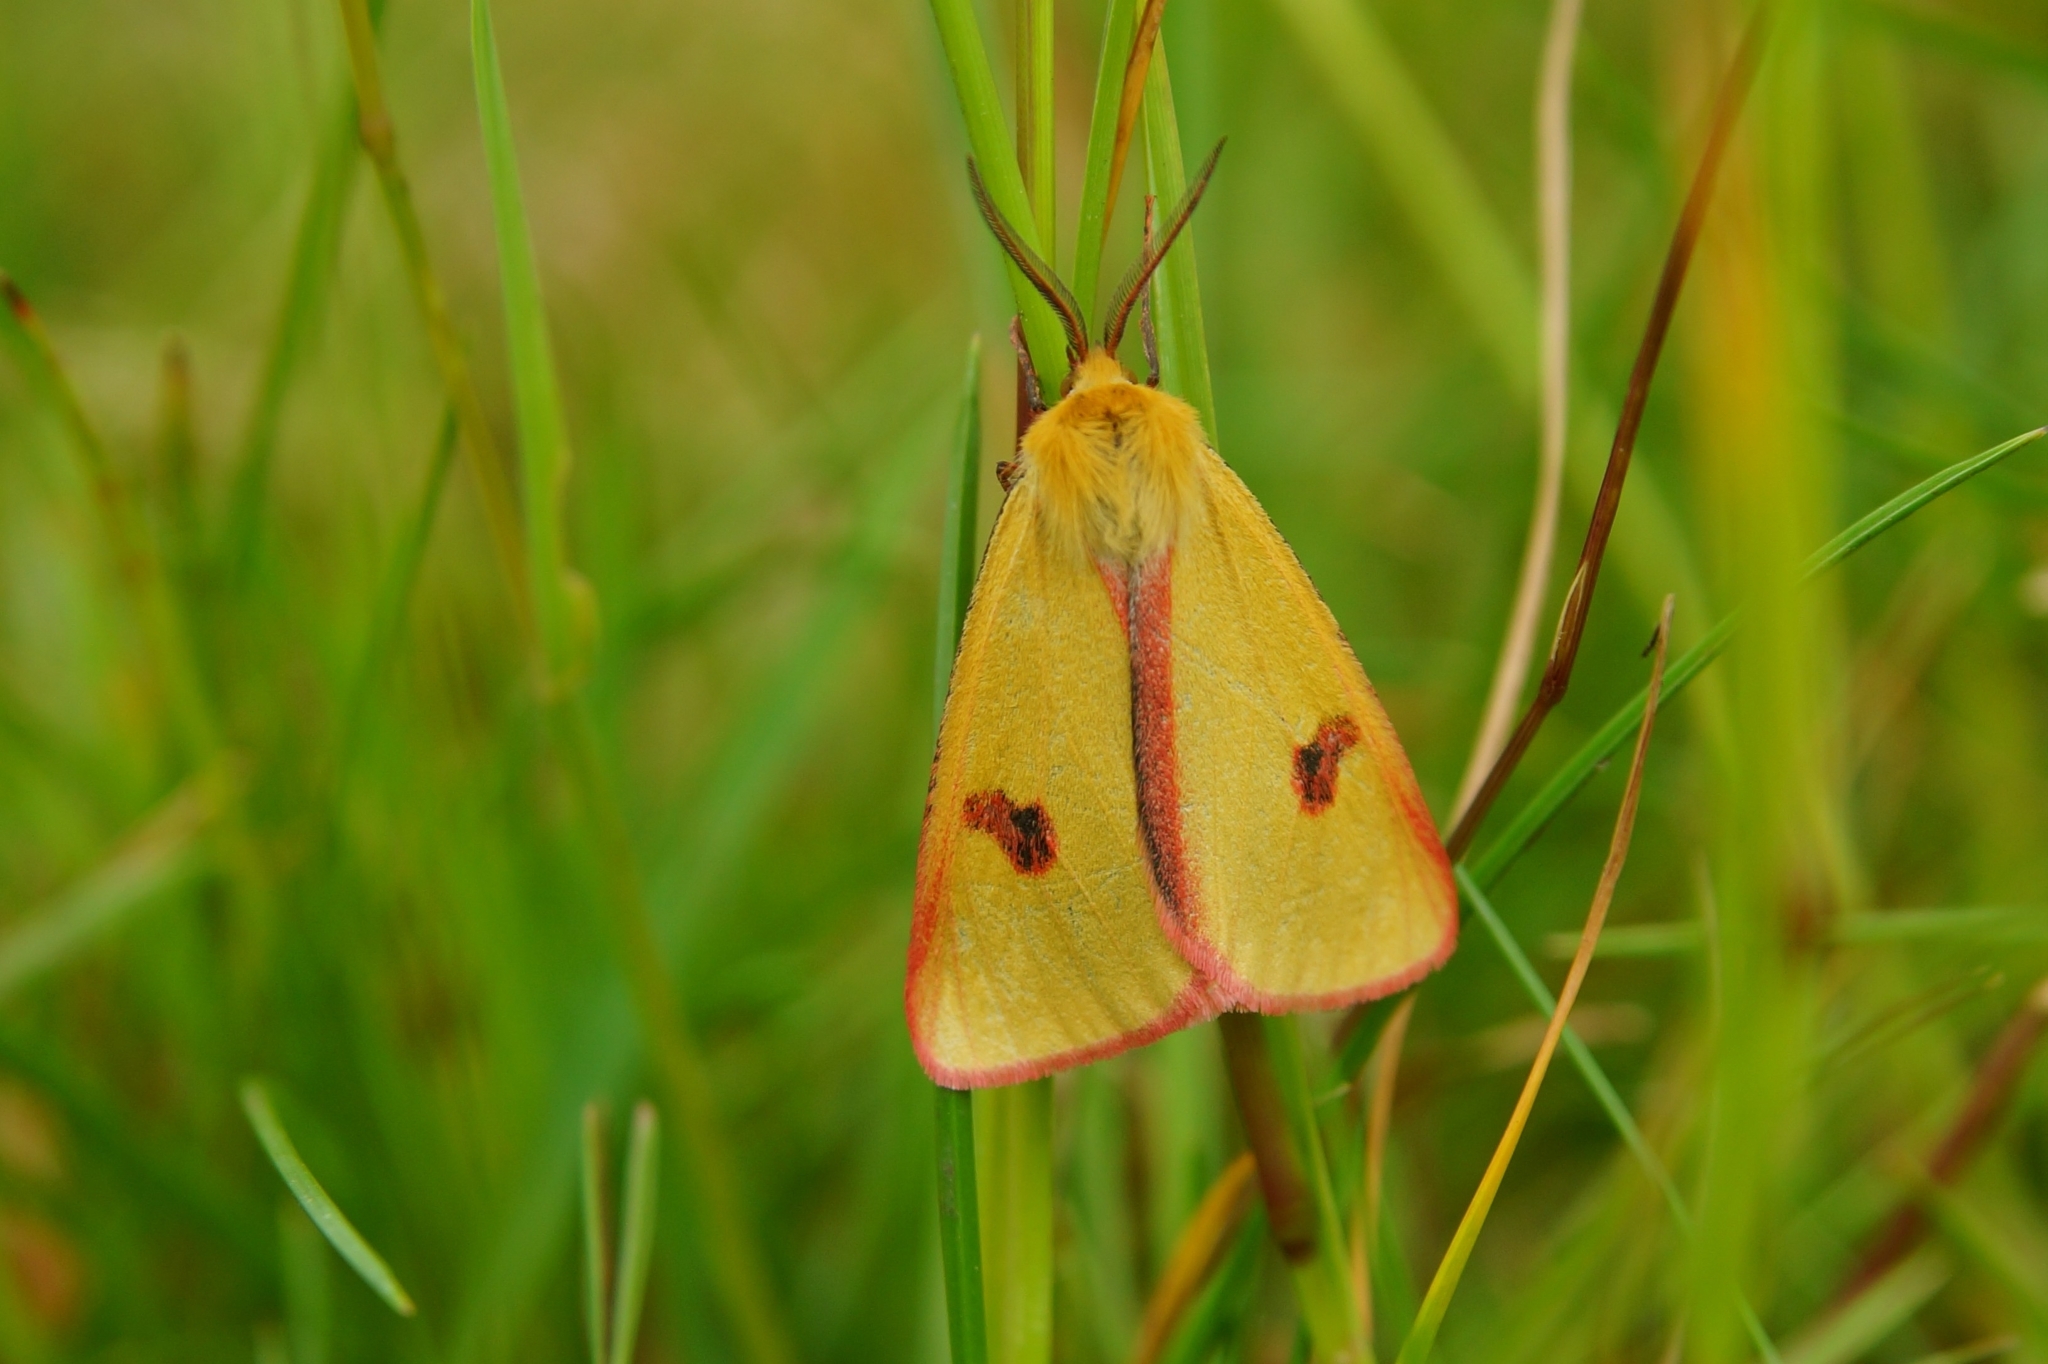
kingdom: Animalia
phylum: Arthropoda
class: Insecta
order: Lepidoptera
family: Erebidae
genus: Diacrisia
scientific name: Diacrisia sannio
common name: Clouded buff
